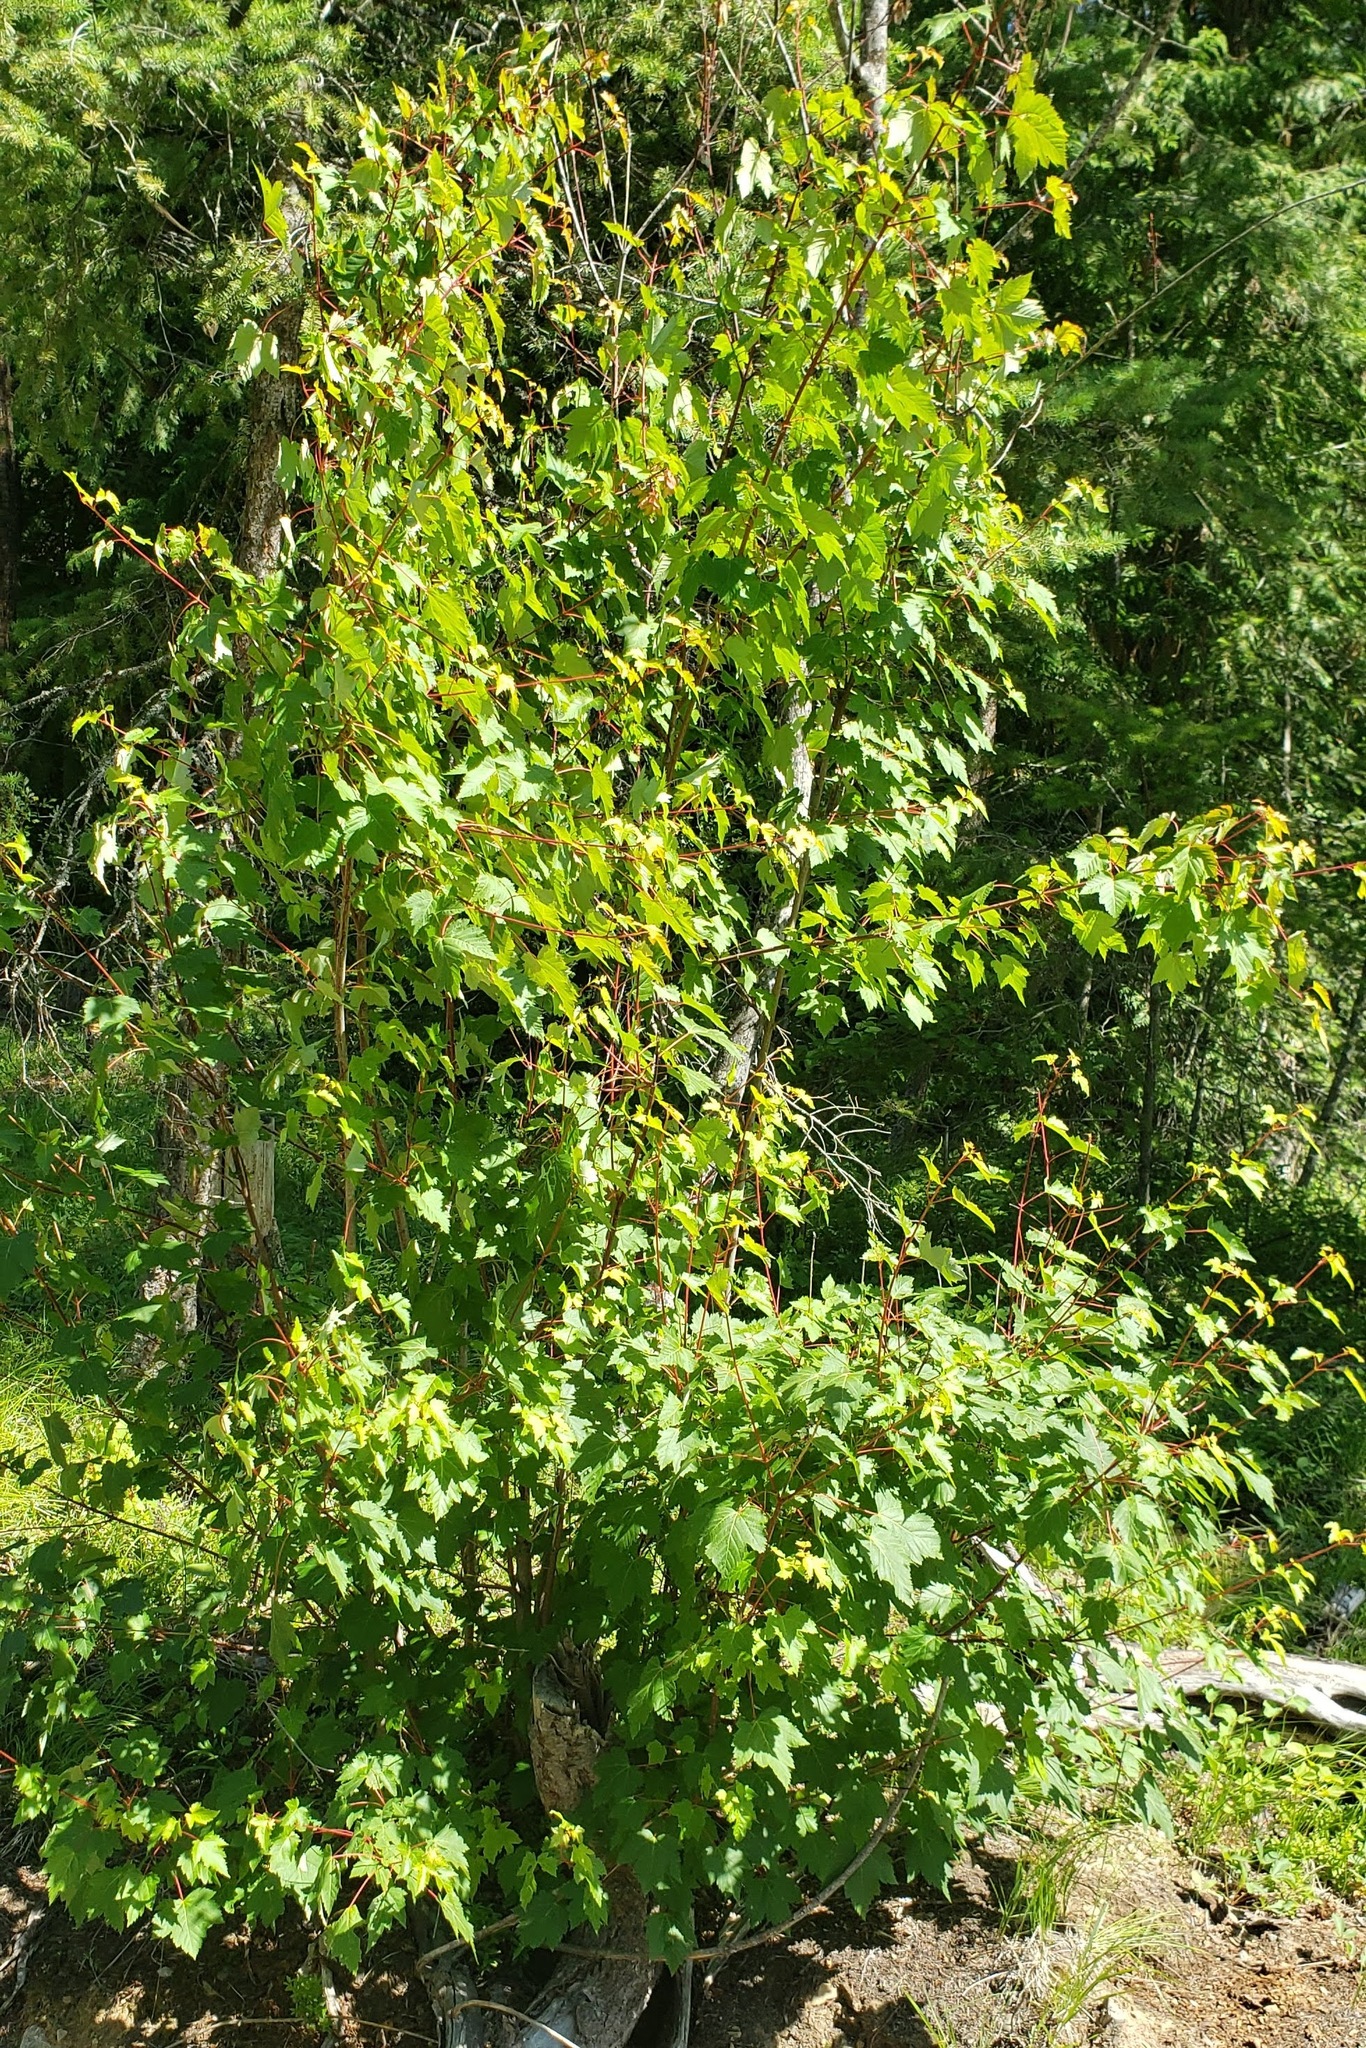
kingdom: Plantae
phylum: Tracheophyta
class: Magnoliopsida
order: Sapindales
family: Sapindaceae
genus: Acer
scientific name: Acer glabrum
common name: Rocky mountain maple
